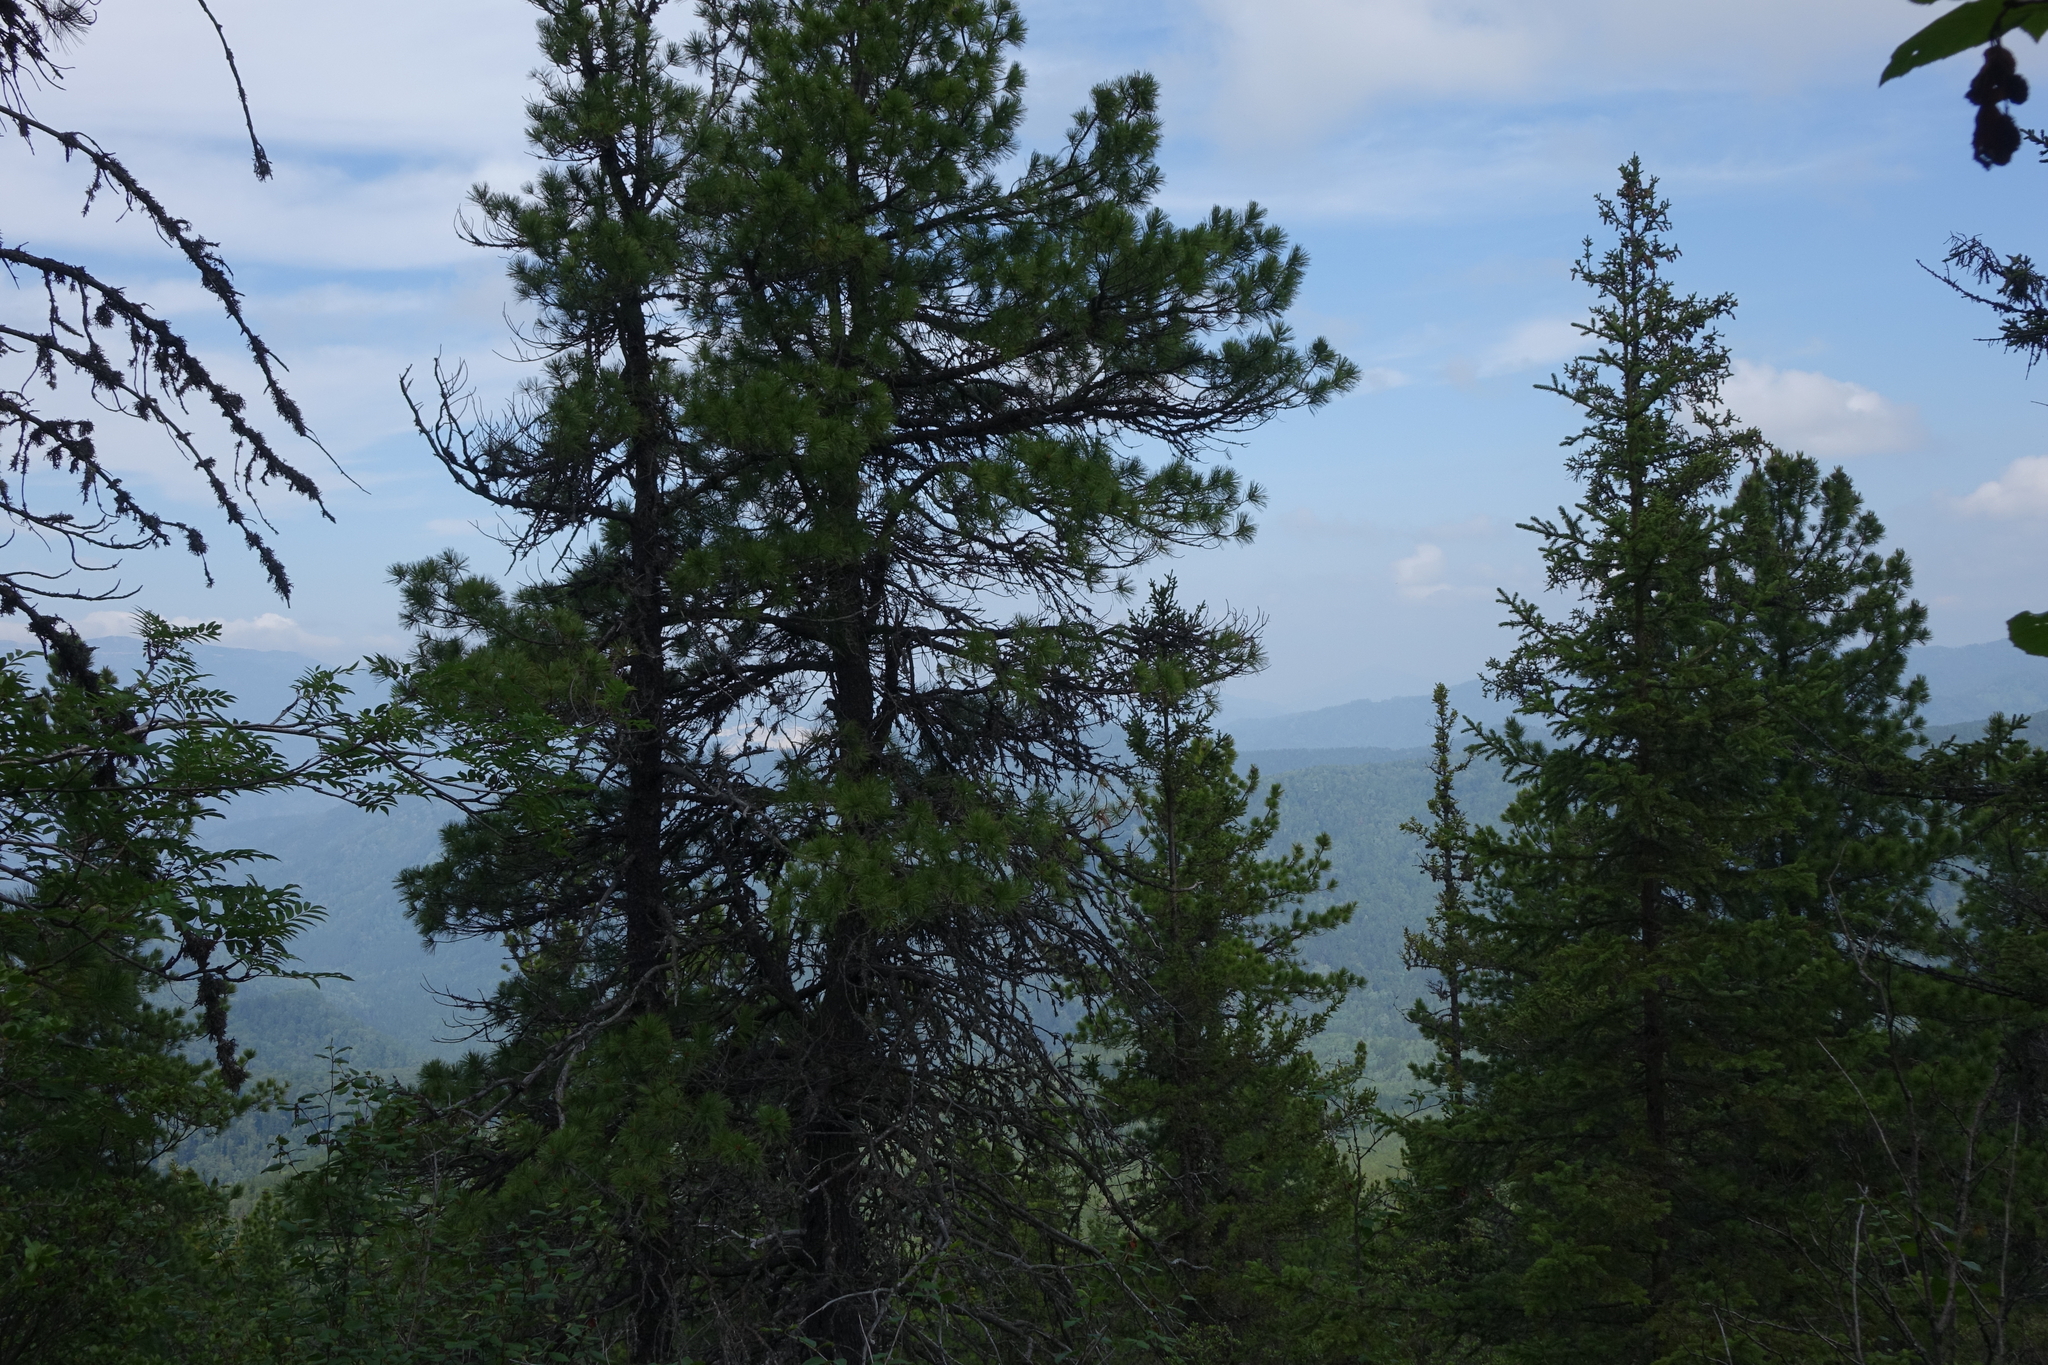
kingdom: Plantae
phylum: Tracheophyta
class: Pinopsida
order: Pinales
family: Pinaceae
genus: Pinus
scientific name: Pinus sibirica
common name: Siberian pine
